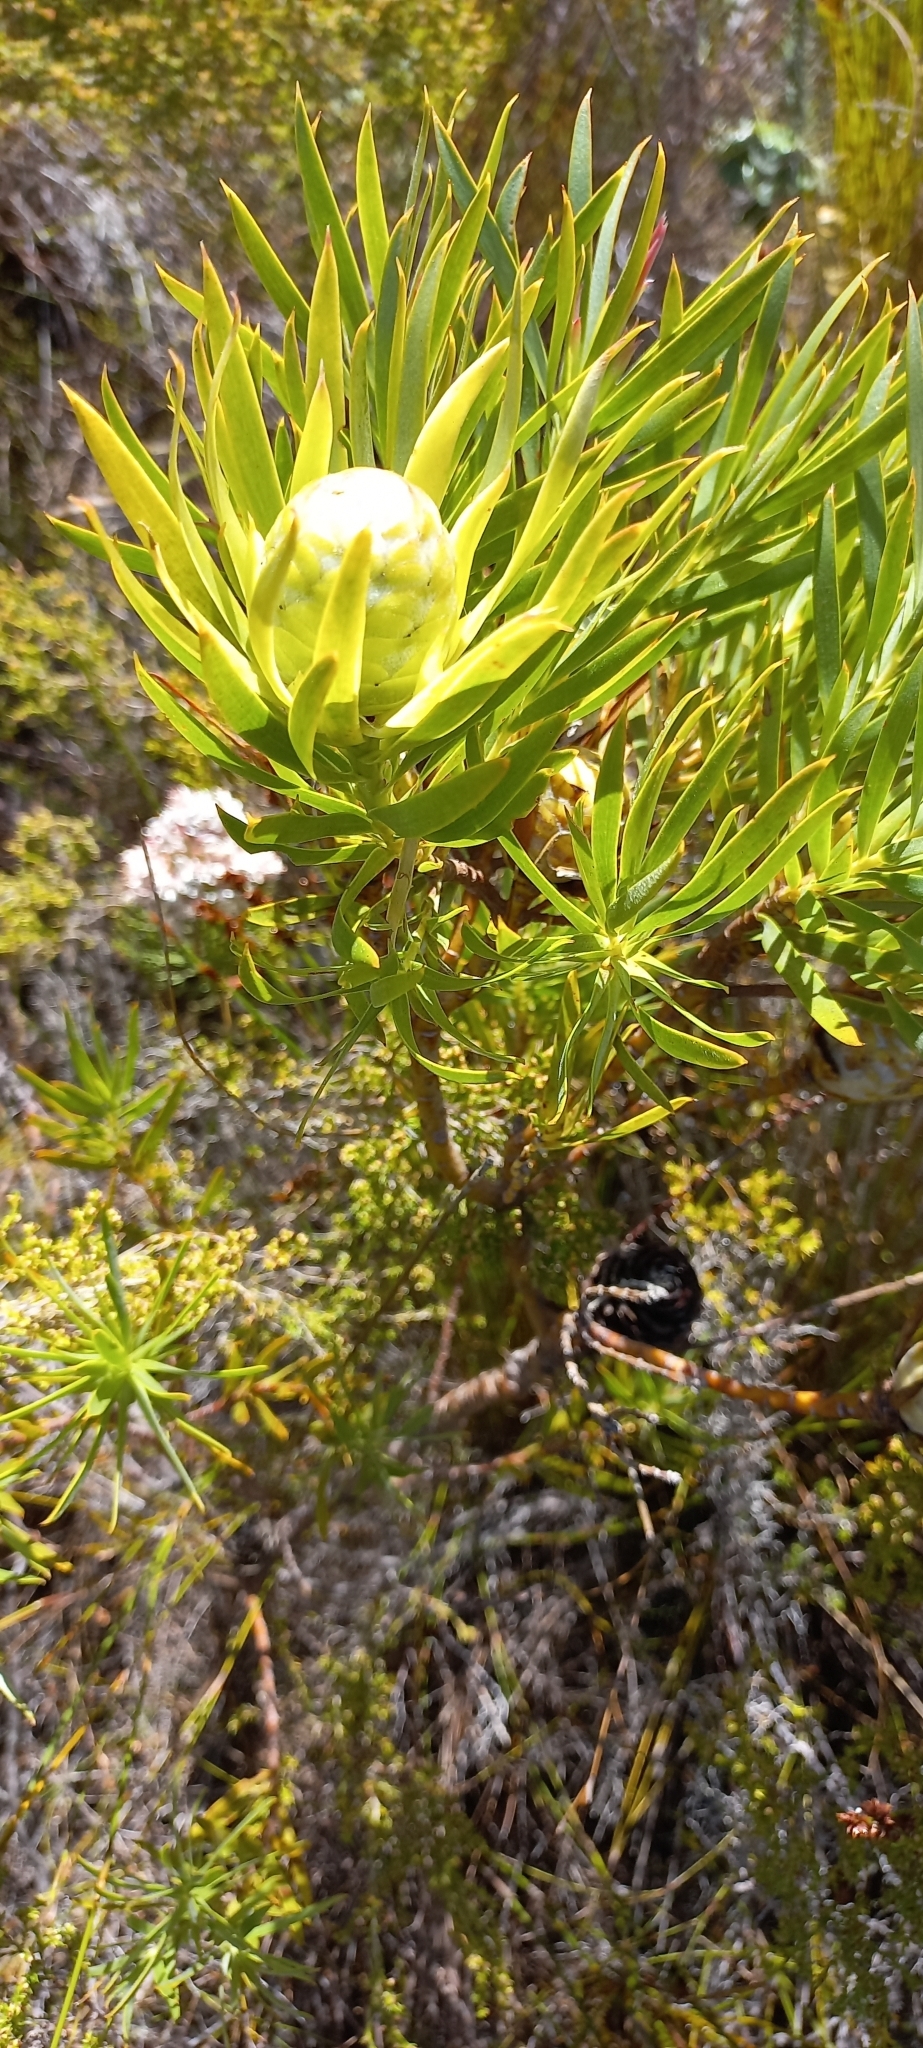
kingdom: Plantae
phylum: Tracheophyta
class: Magnoliopsida
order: Proteales
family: Proteaceae
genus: Leucadendron
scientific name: Leucadendron salignum
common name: Common sunshine conebush
